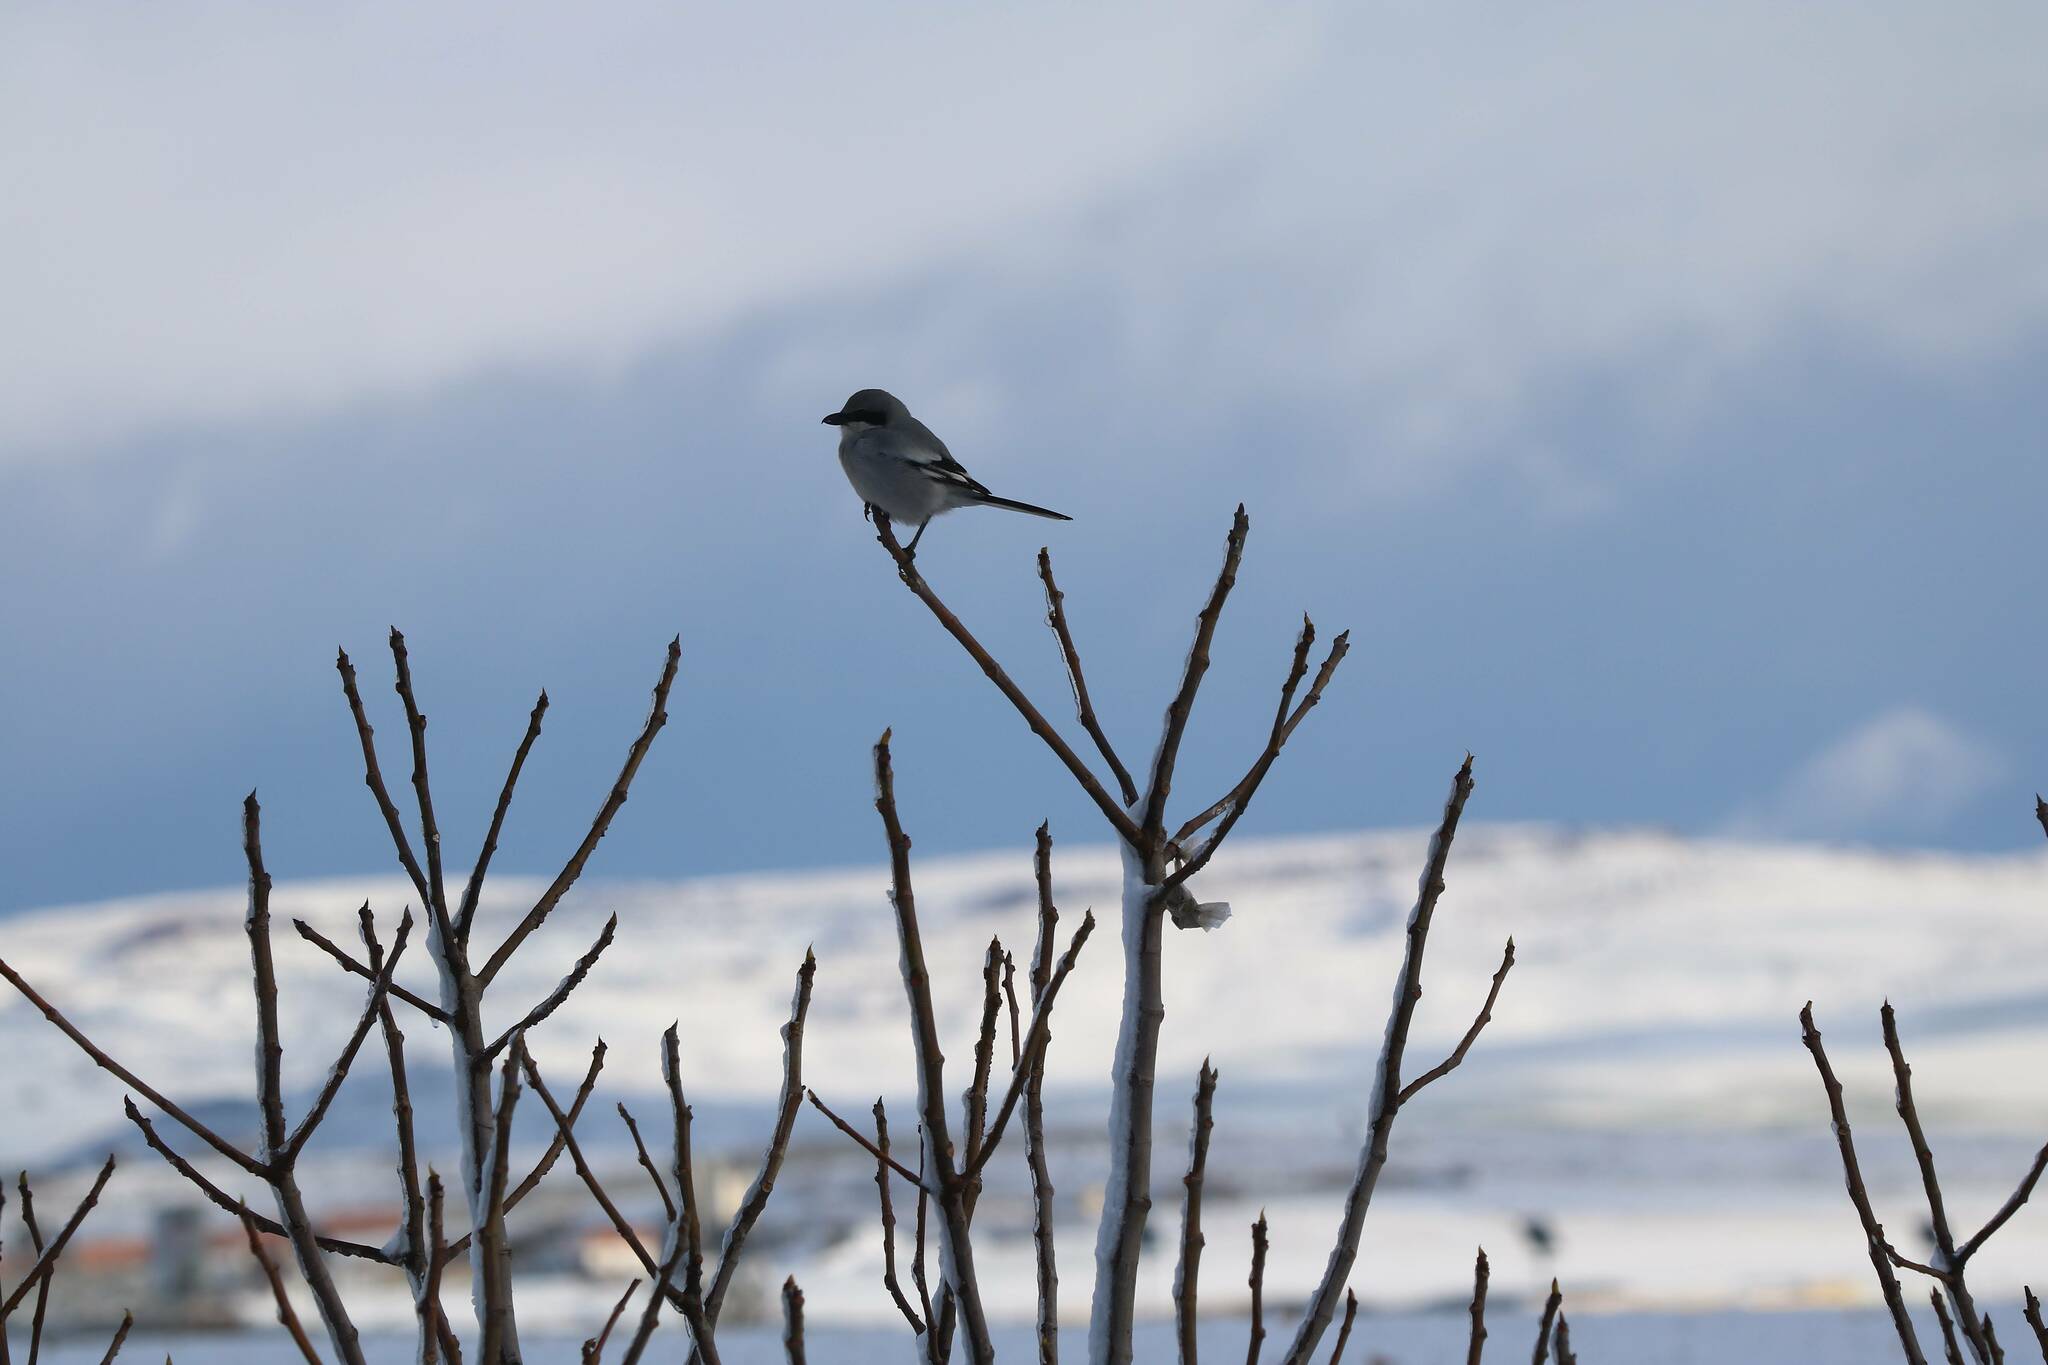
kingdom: Animalia
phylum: Chordata
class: Aves
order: Passeriformes
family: Laniidae
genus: Lanius
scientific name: Lanius excubitor
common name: Great grey shrike
